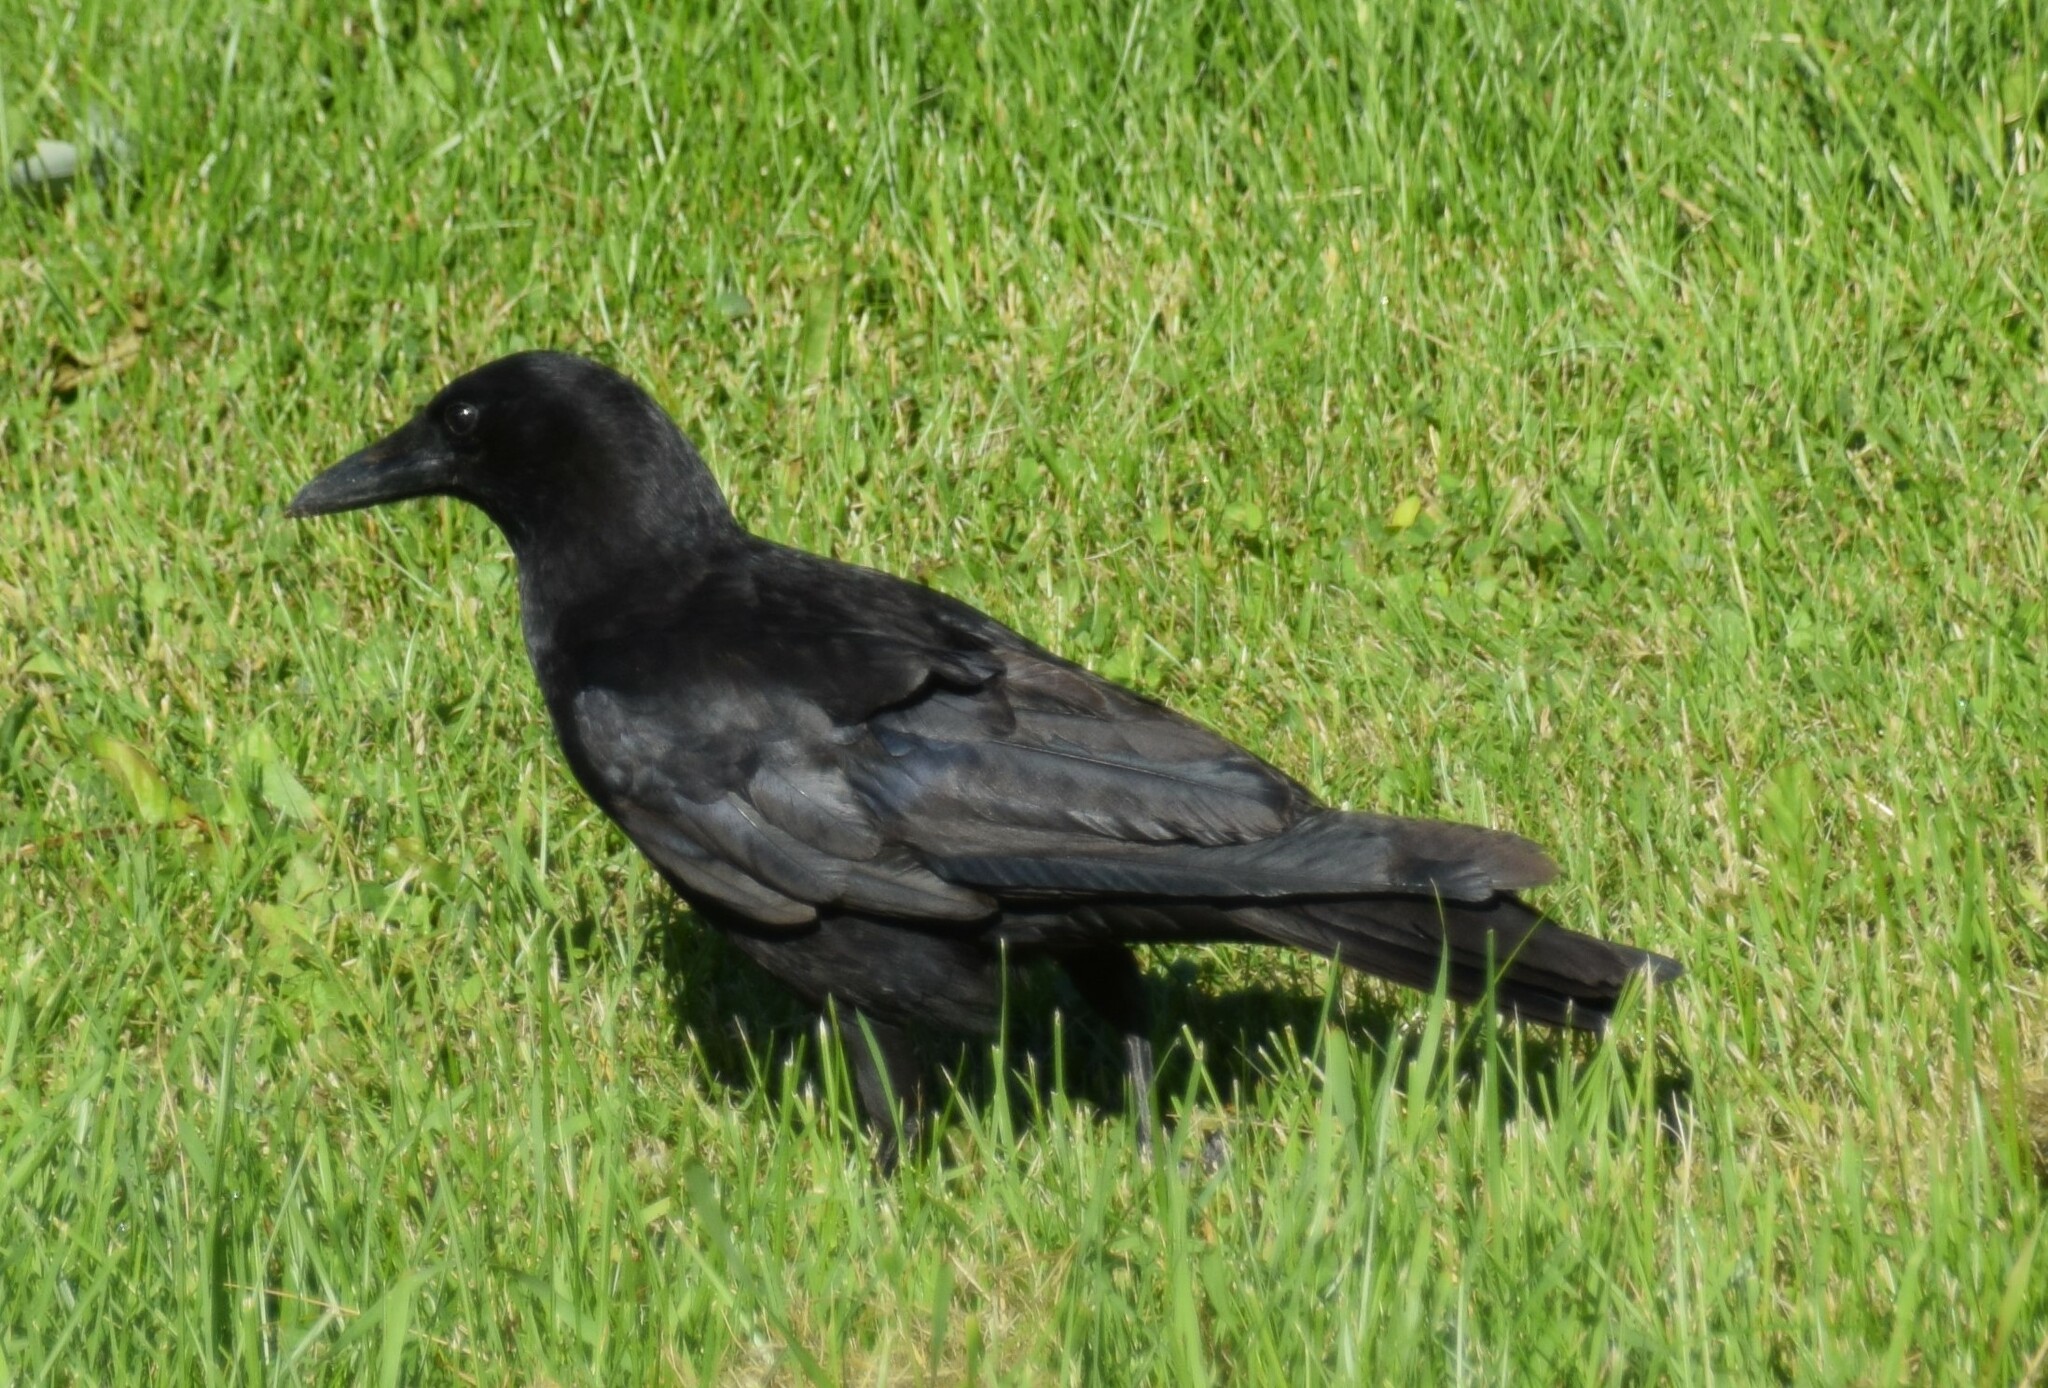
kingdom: Animalia
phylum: Chordata
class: Aves
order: Passeriformes
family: Corvidae
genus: Corvus
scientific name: Corvus brachyrhynchos
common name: American crow
